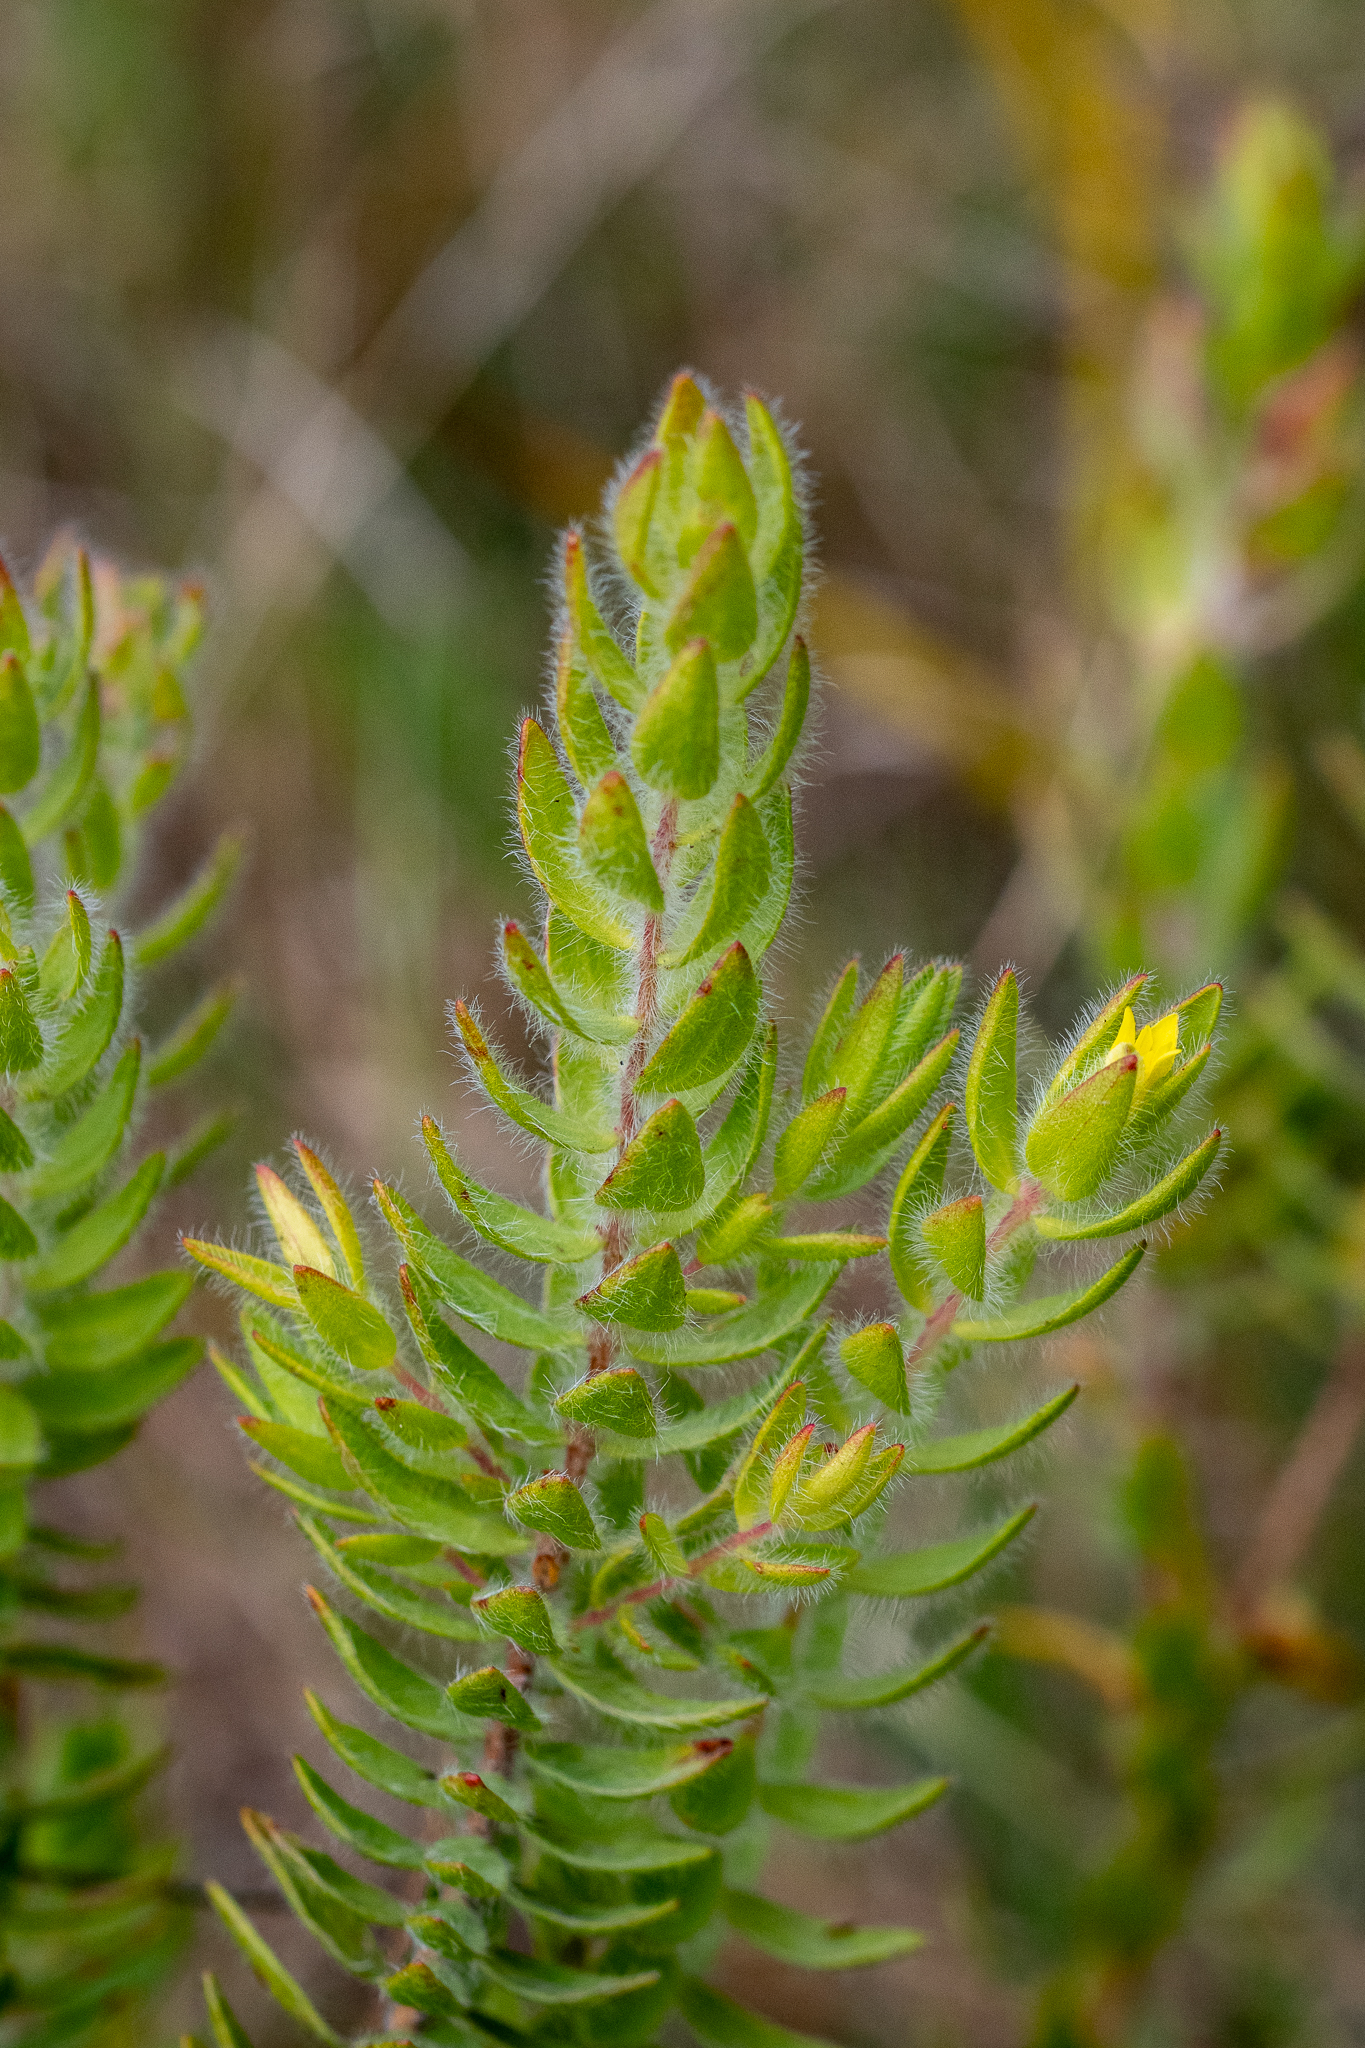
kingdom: Plantae
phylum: Tracheophyta
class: Magnoliopsida
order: Malvales
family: Thymelaeaceae
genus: Gnidia
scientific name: Gnidia humilis
